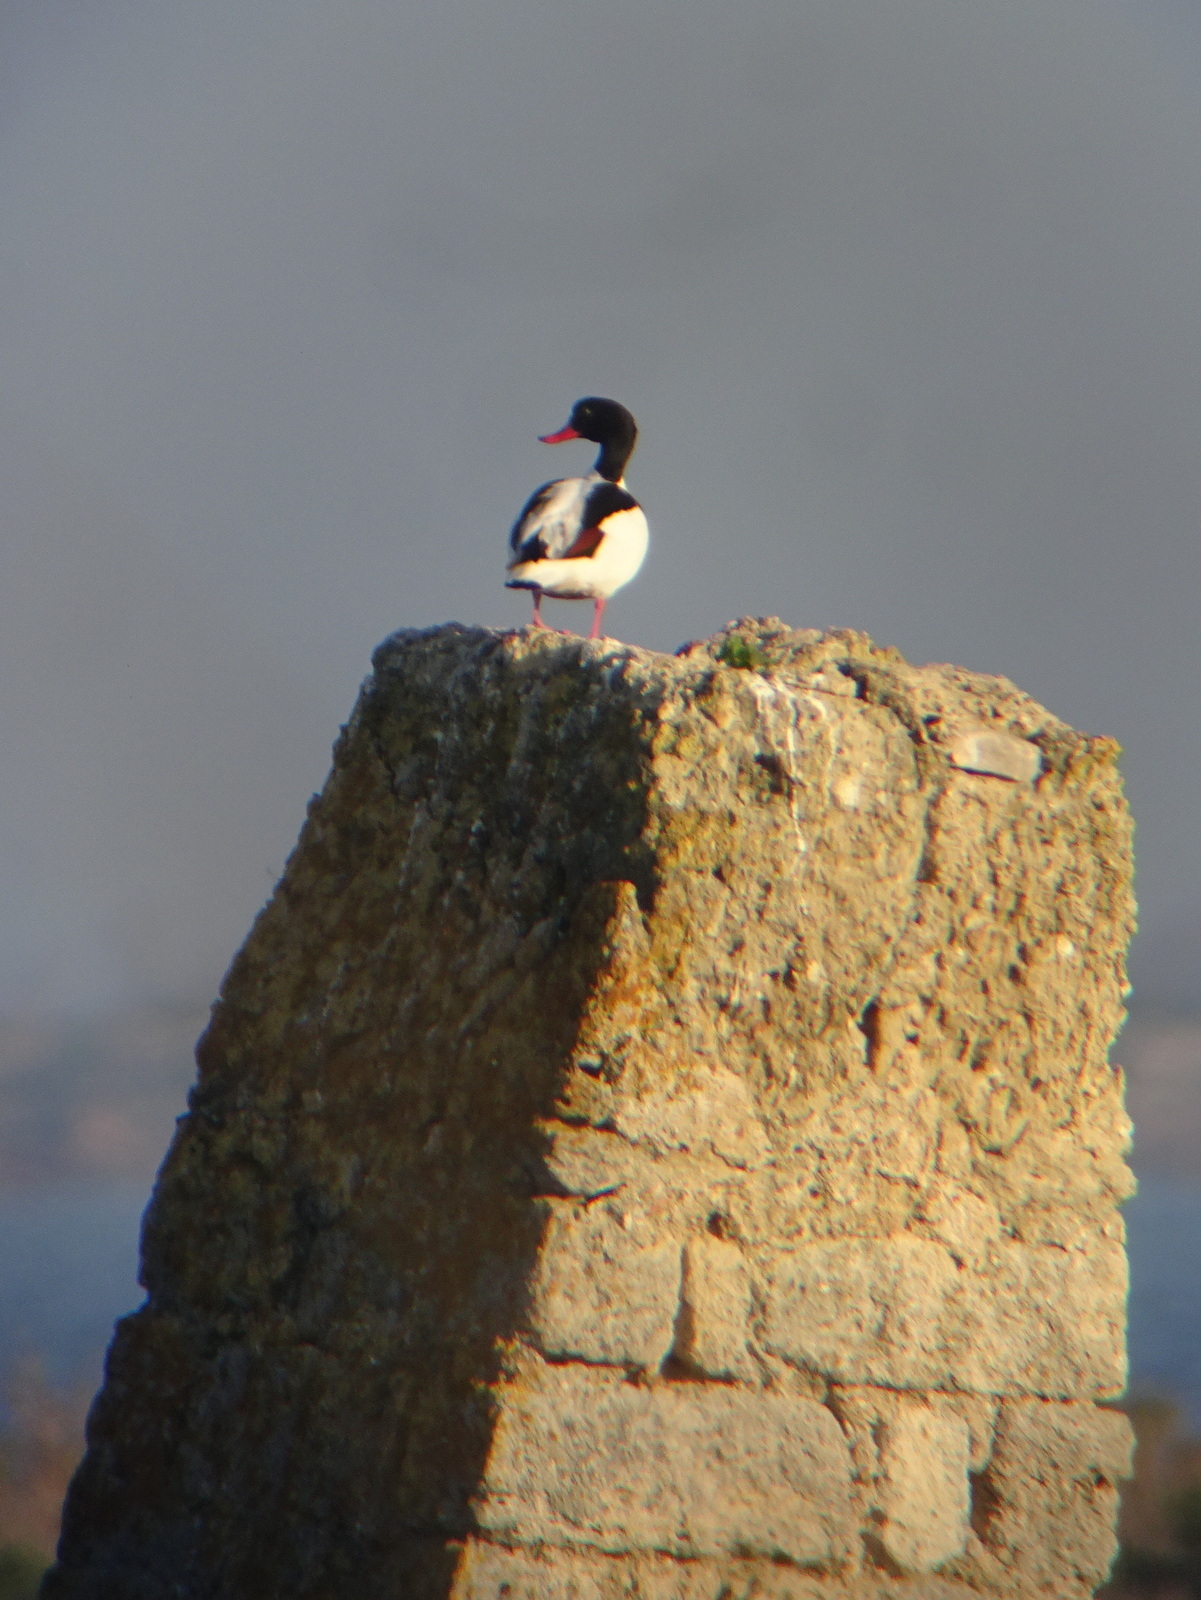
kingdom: Animalia
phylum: Chordata
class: Aves
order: Anseriformes
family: Anatidae
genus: Tadorna
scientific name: Tadorna tadorna
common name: Common shelduck
